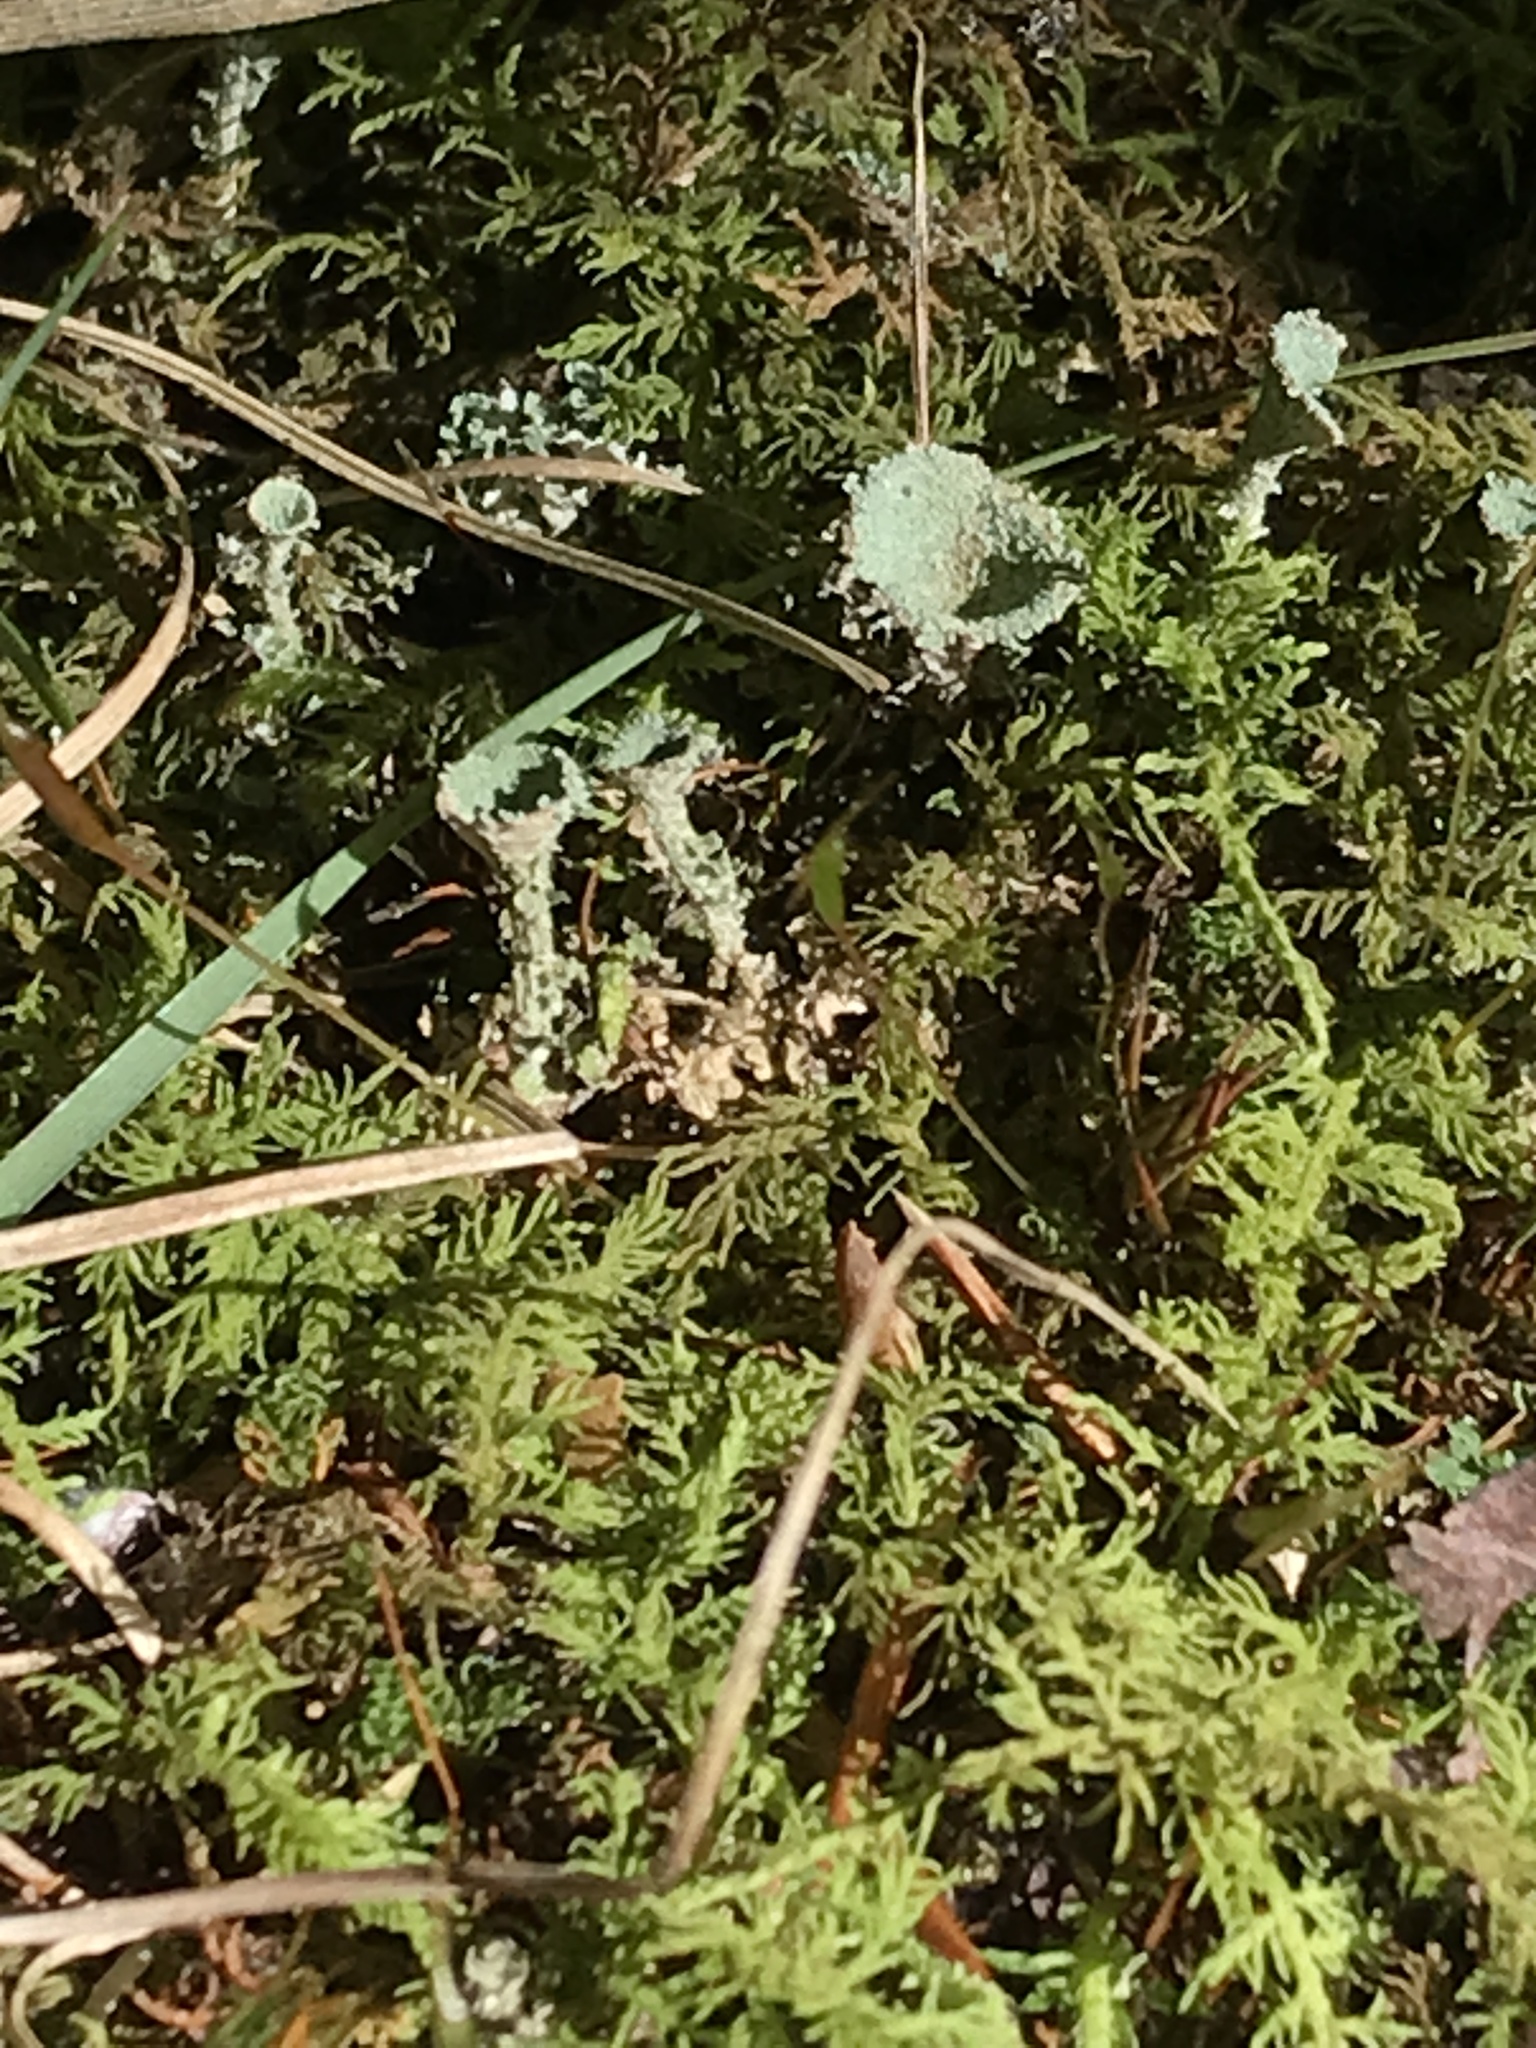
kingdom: Fungi
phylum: Ascomycota
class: Lecanoromycetes
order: Lecanorales
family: Cladoniaceae
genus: Cladonia
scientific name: Cladonia pyxidata
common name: Pebbled pixie cup
